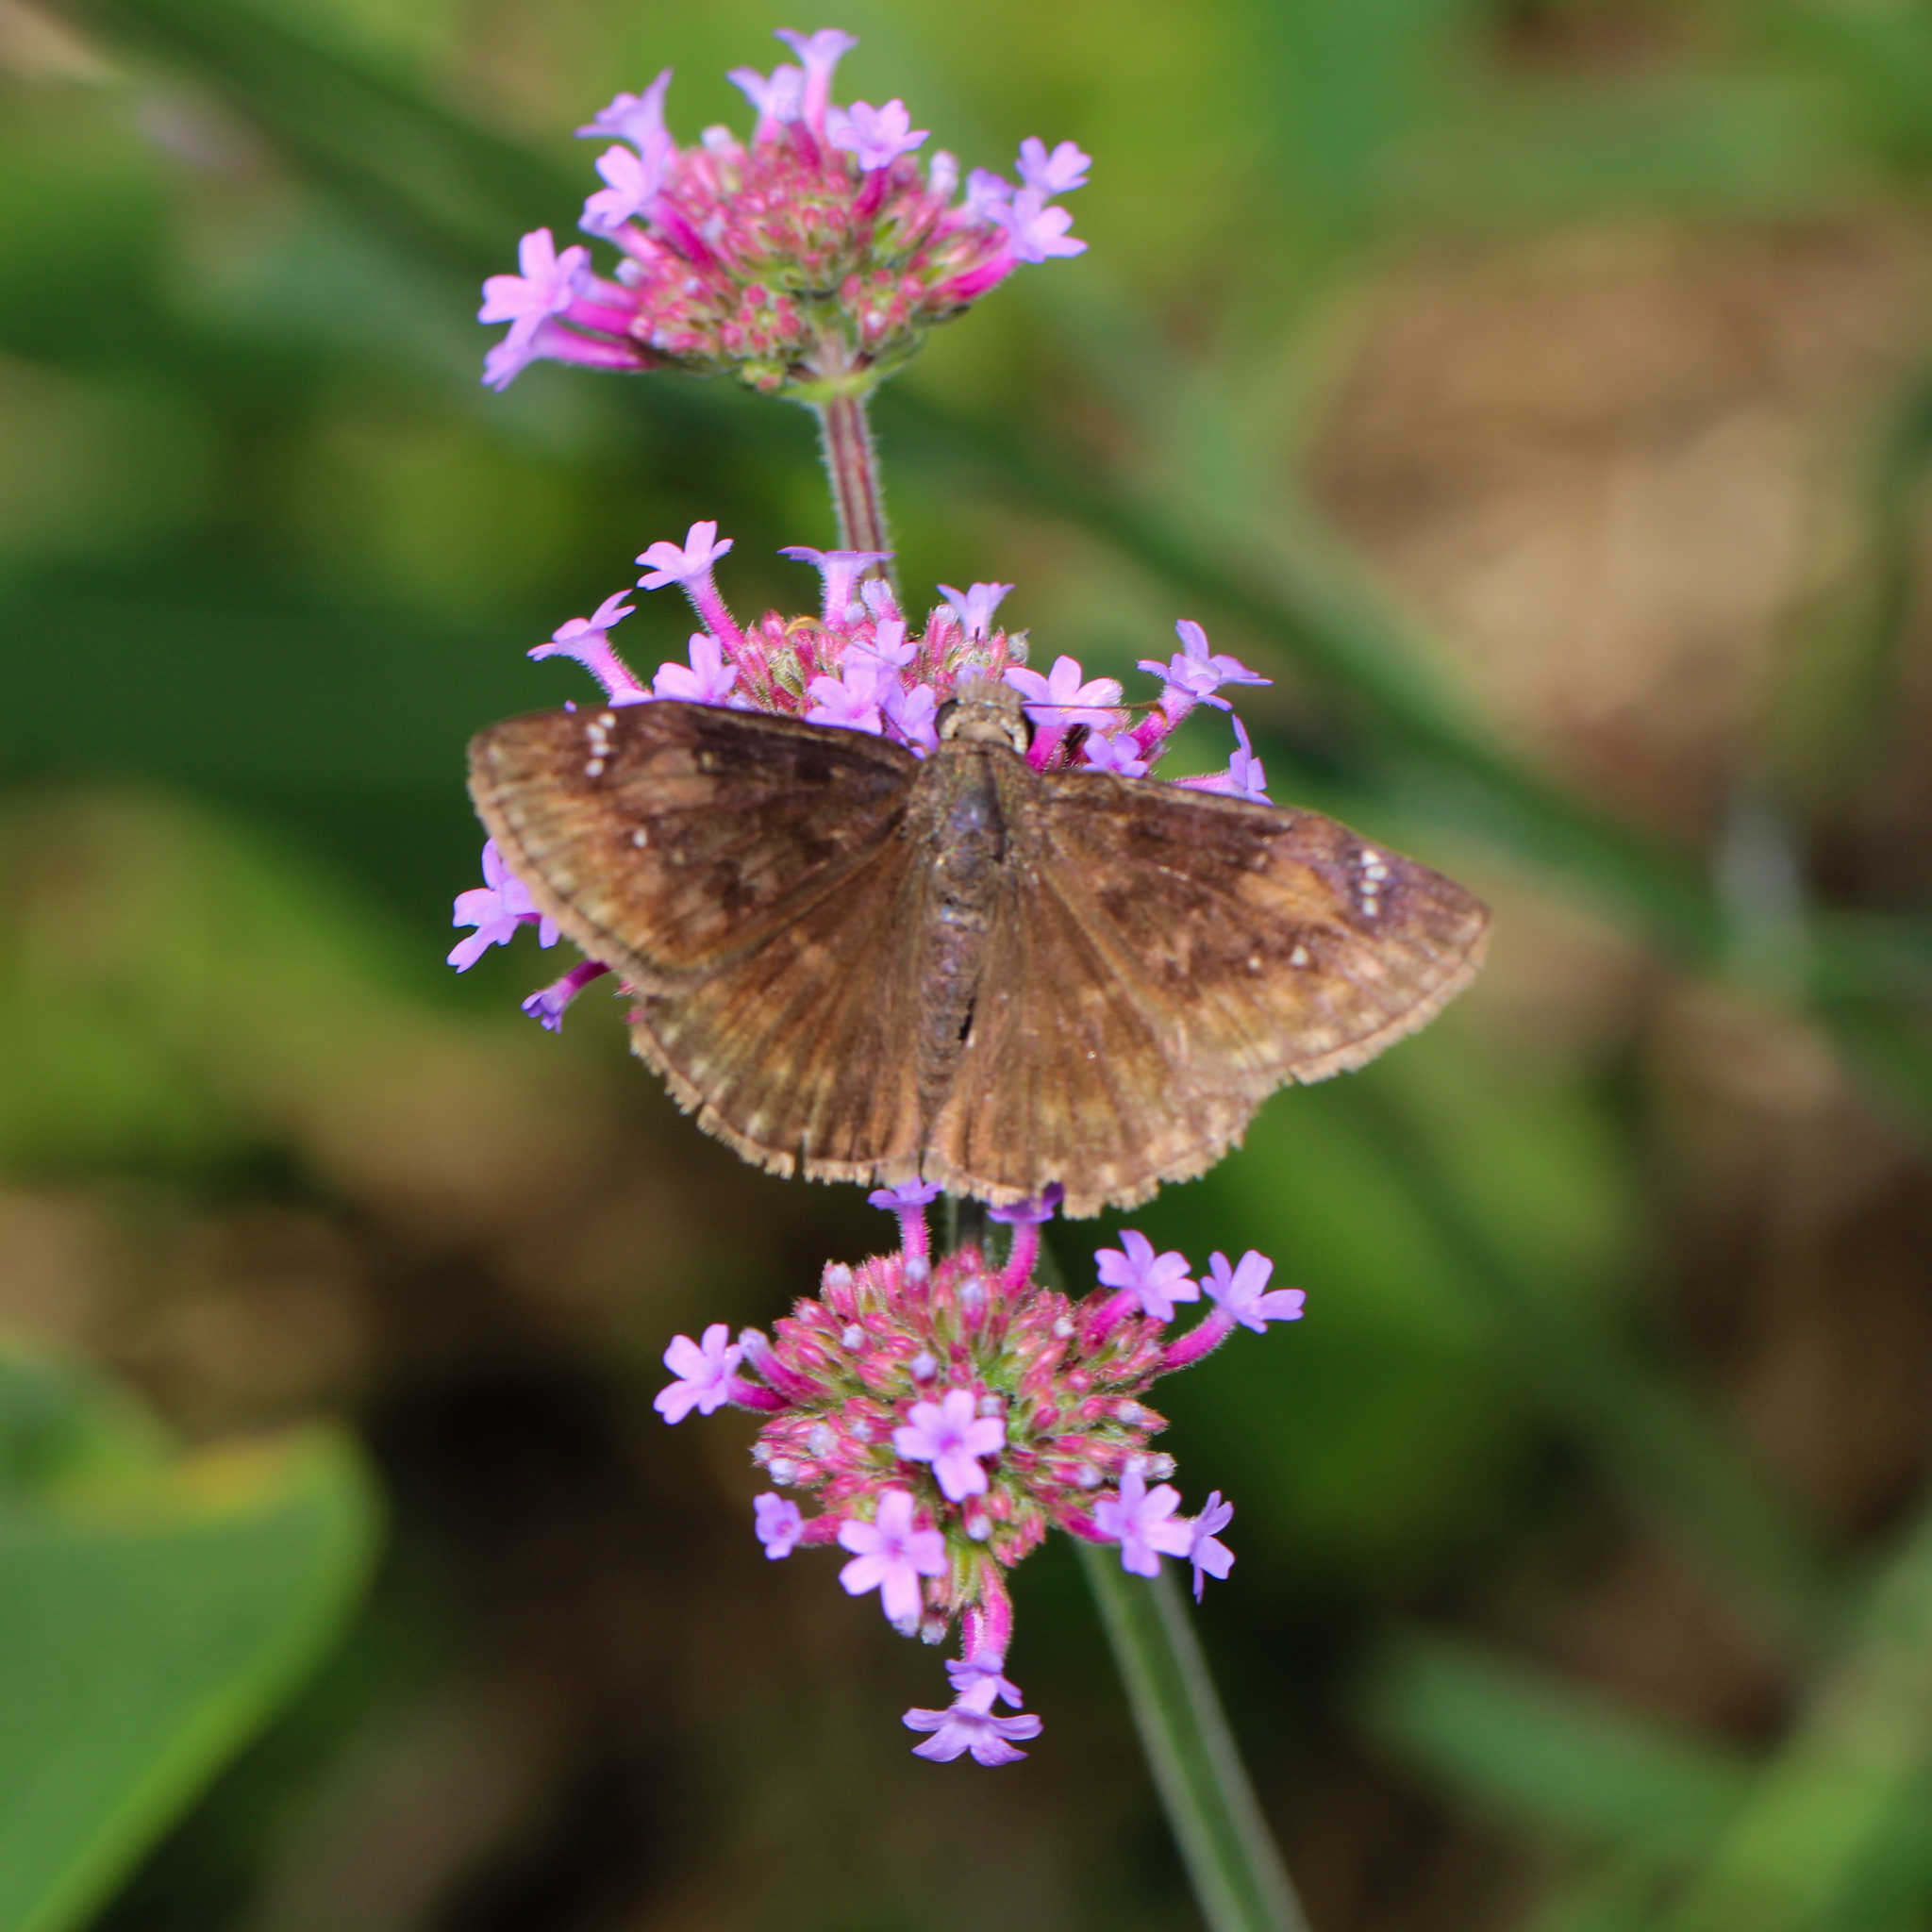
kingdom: Animalia
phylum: Arthropoda
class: Insecta
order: Lepidoptera
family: Hesperiidae
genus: Erynnis
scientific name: Erynnis horatius
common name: Horace's duskywing
